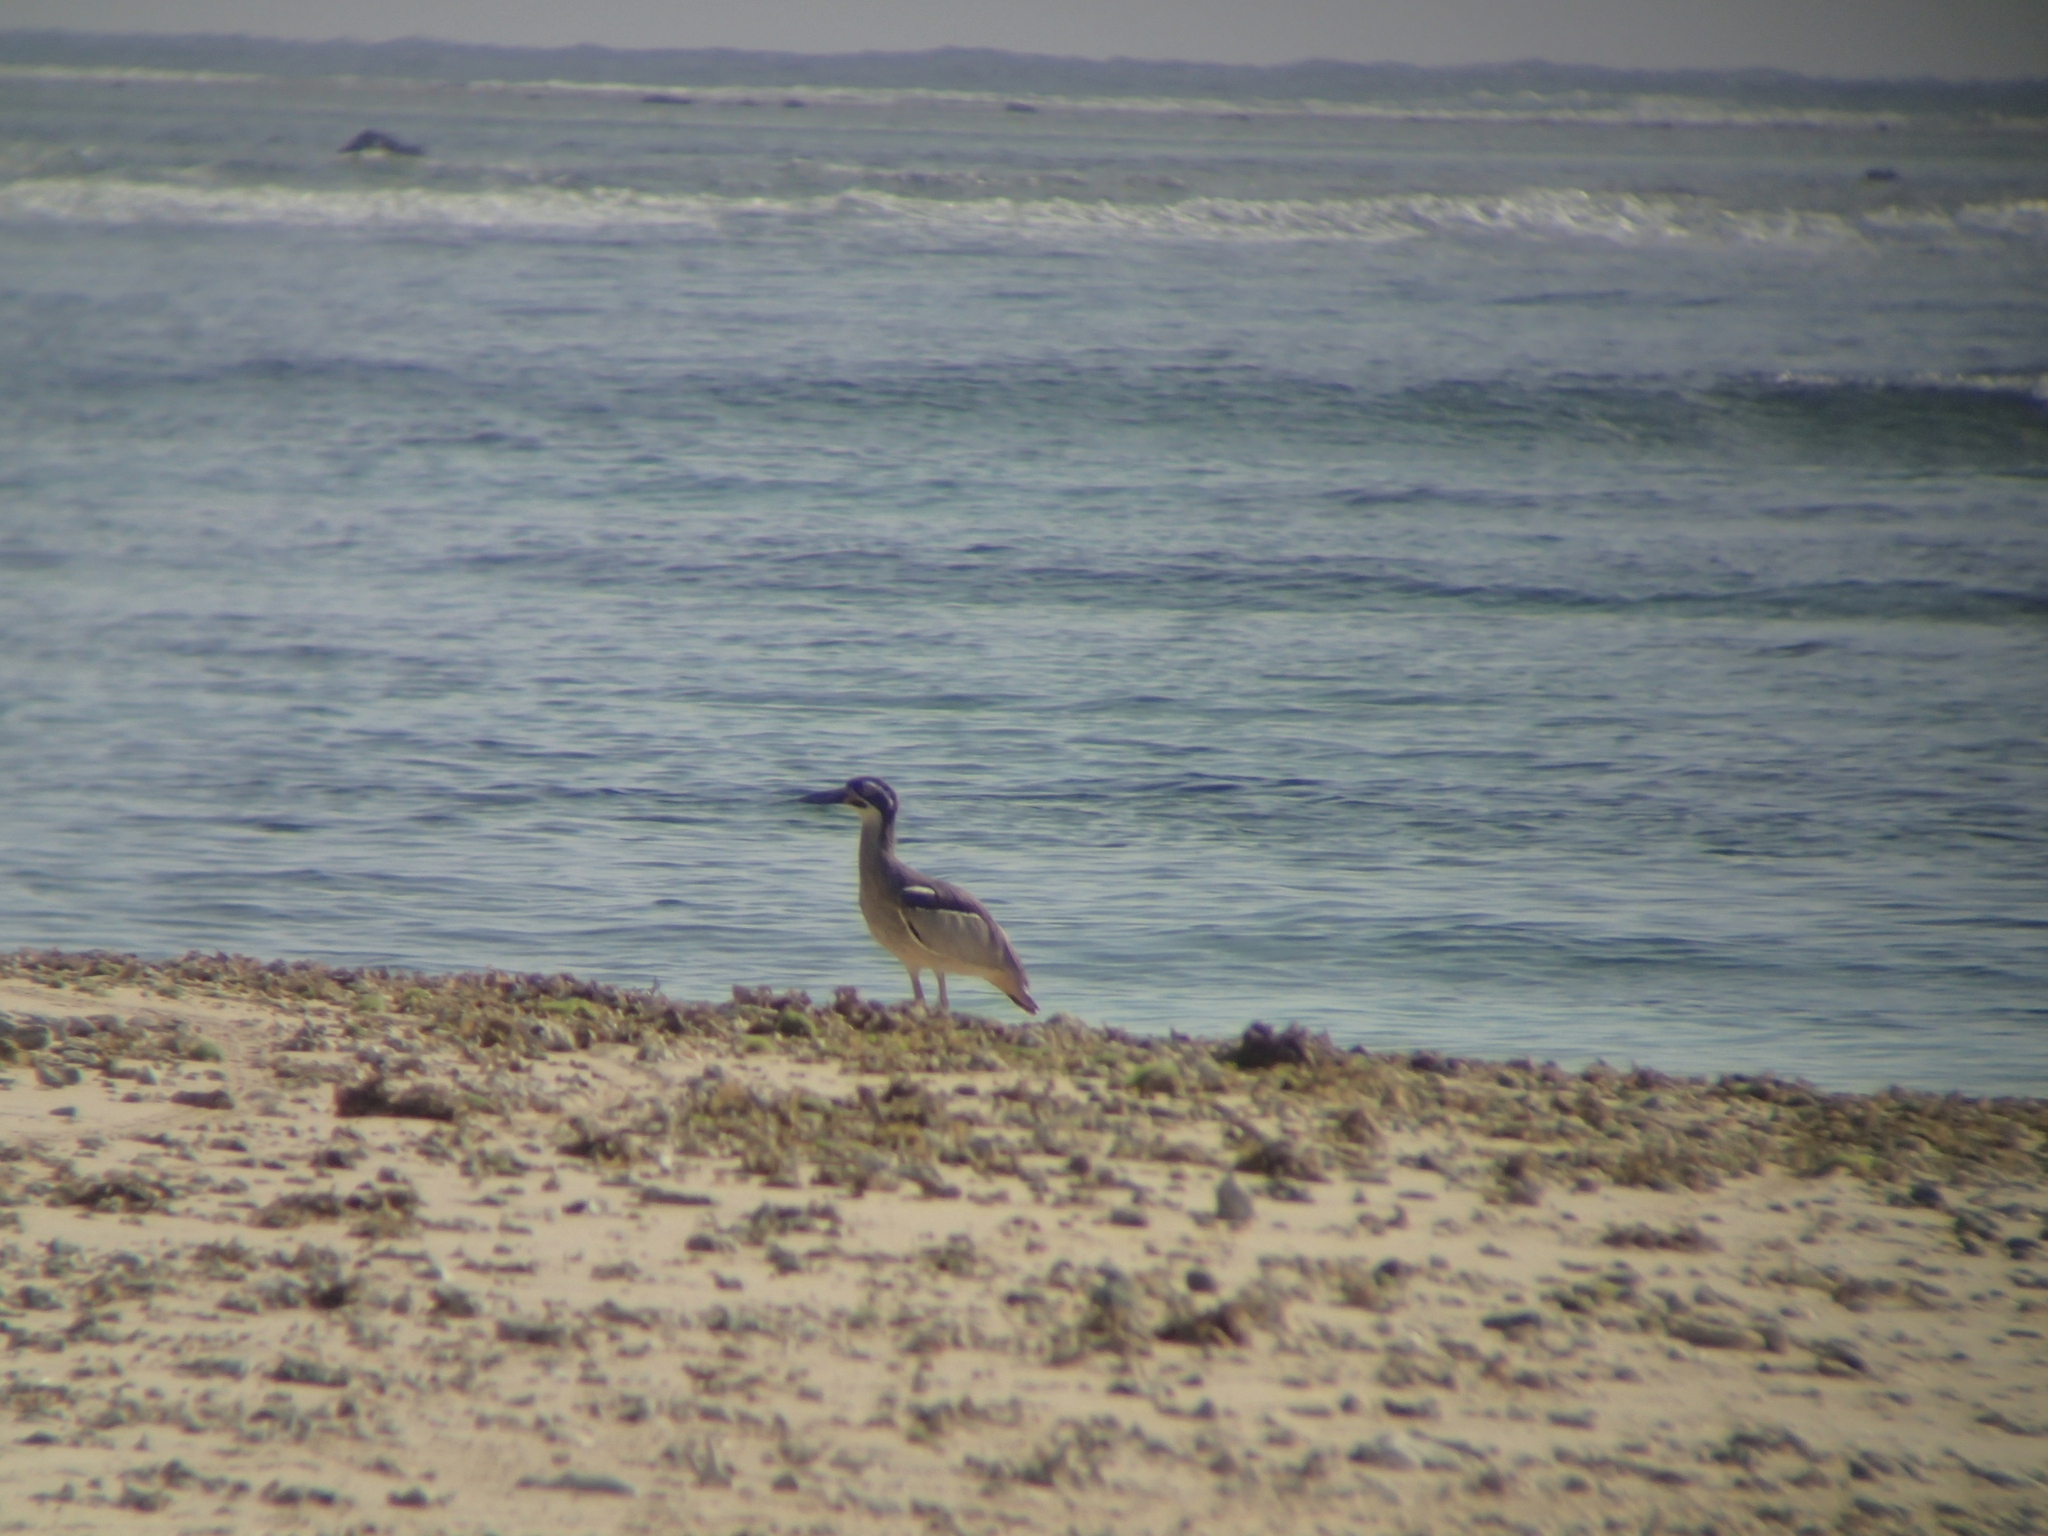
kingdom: Animalia
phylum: Chordata
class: Aves
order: Charadriiformes
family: Burhinidae
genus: Esacus
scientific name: Esacus magnirostris
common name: Beach stone-curlew
